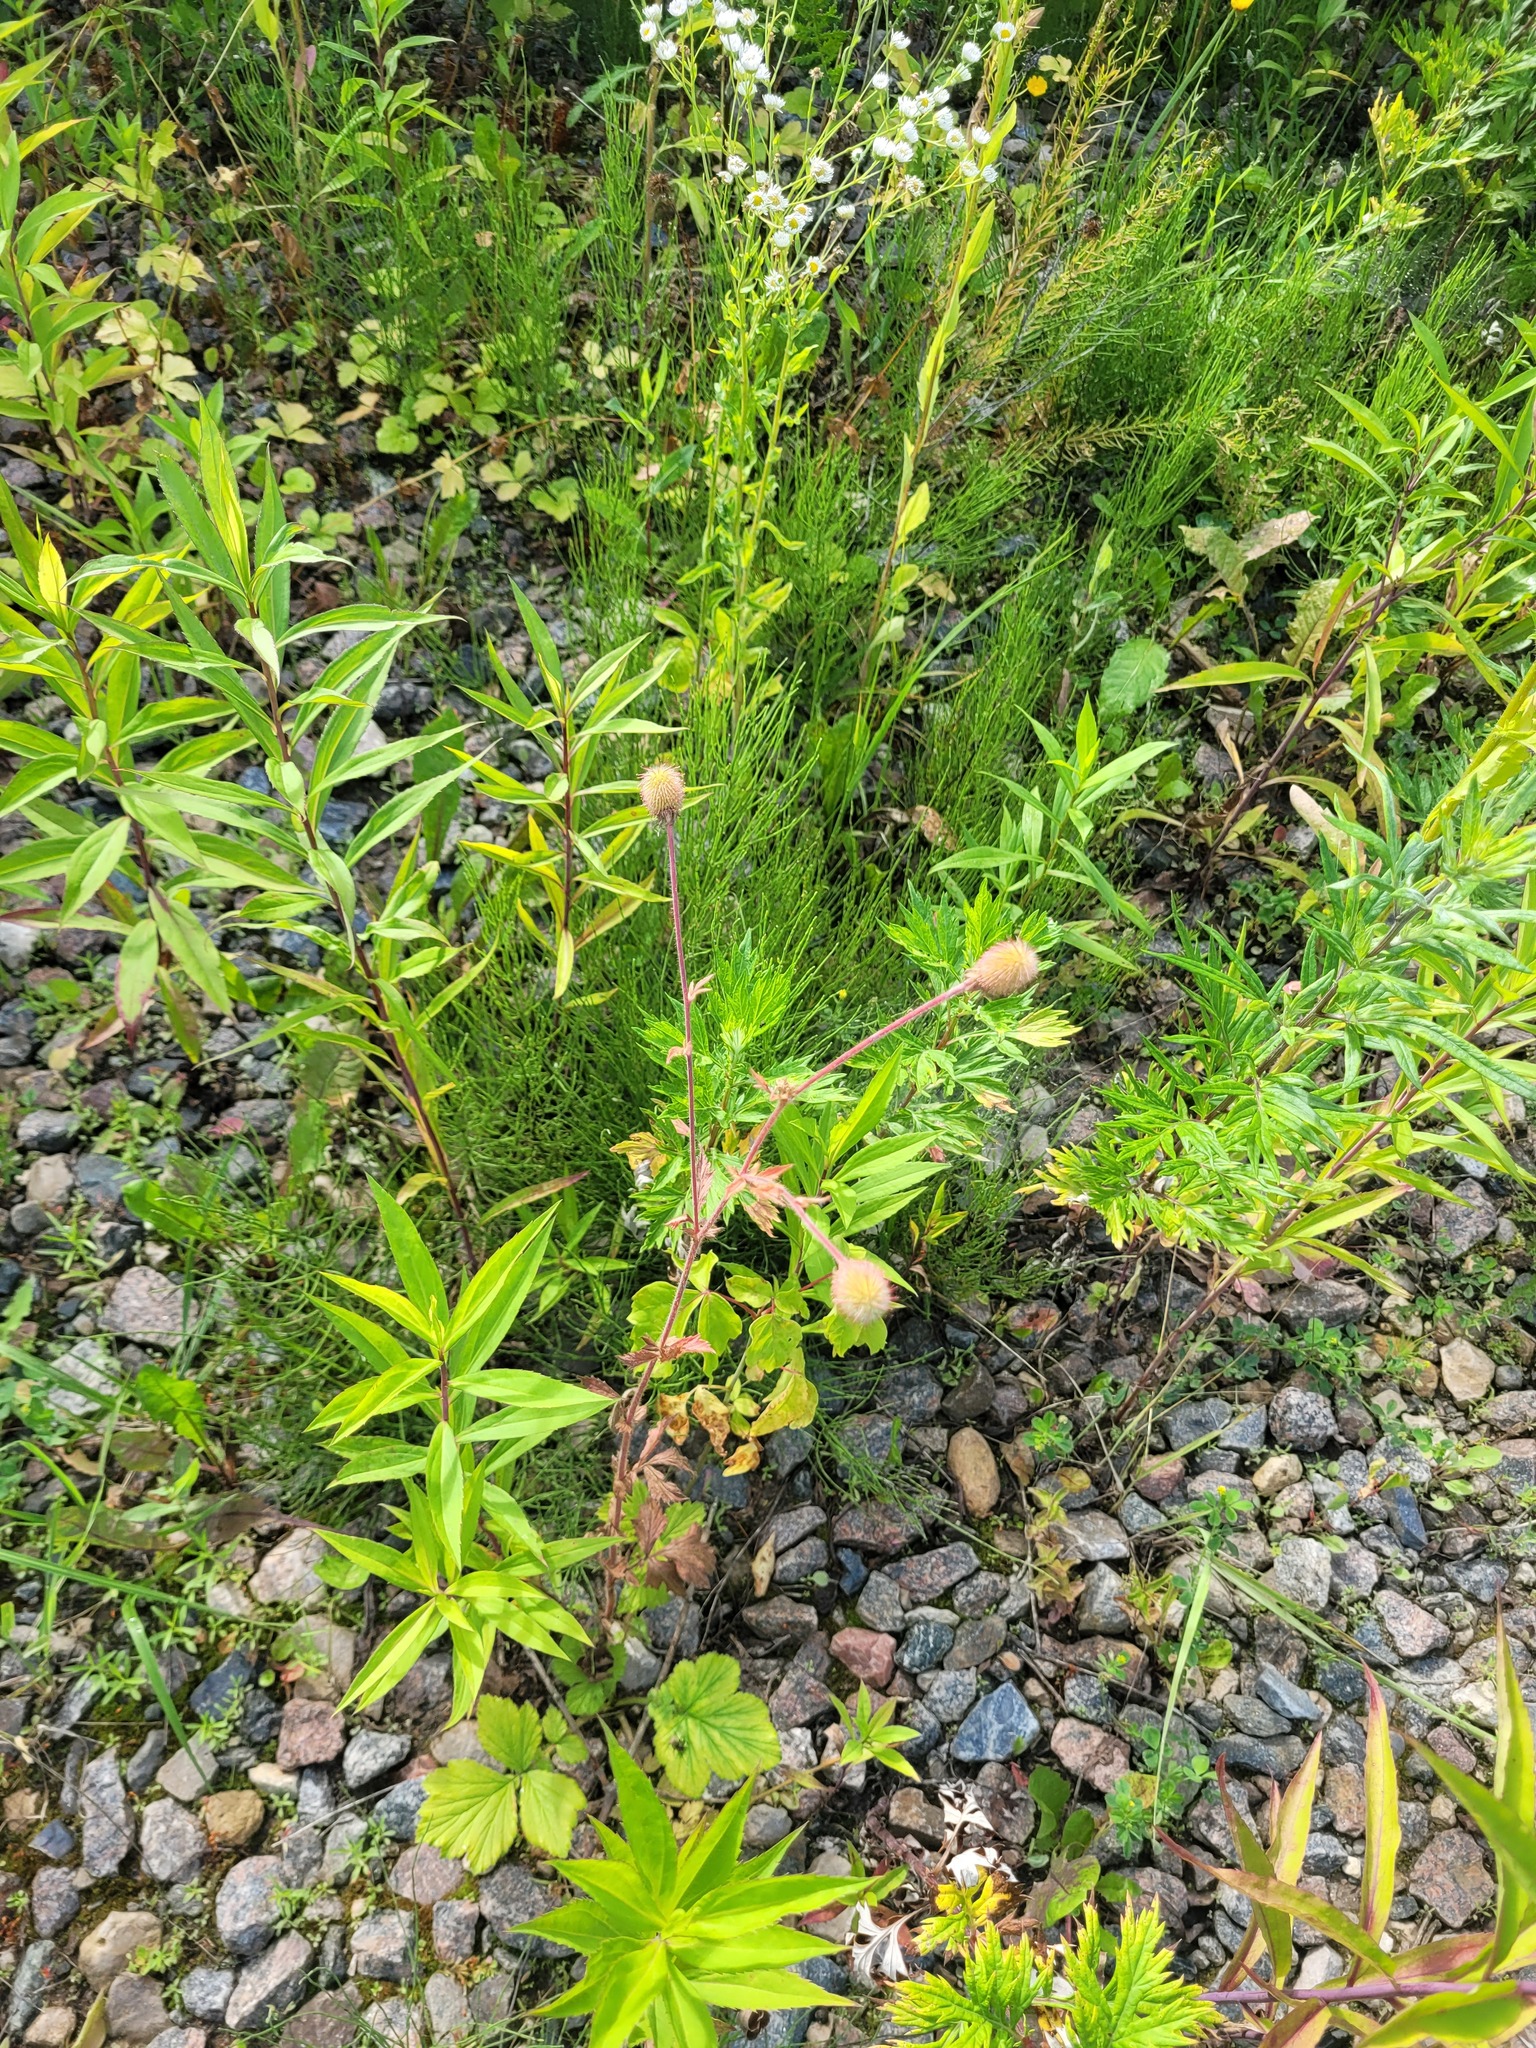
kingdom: Plantae
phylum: Tracheophyta
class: Magnoliopsida
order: Rosales
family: Rosaceae
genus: Geum
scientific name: Geum aleppicum
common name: Yellow avens
